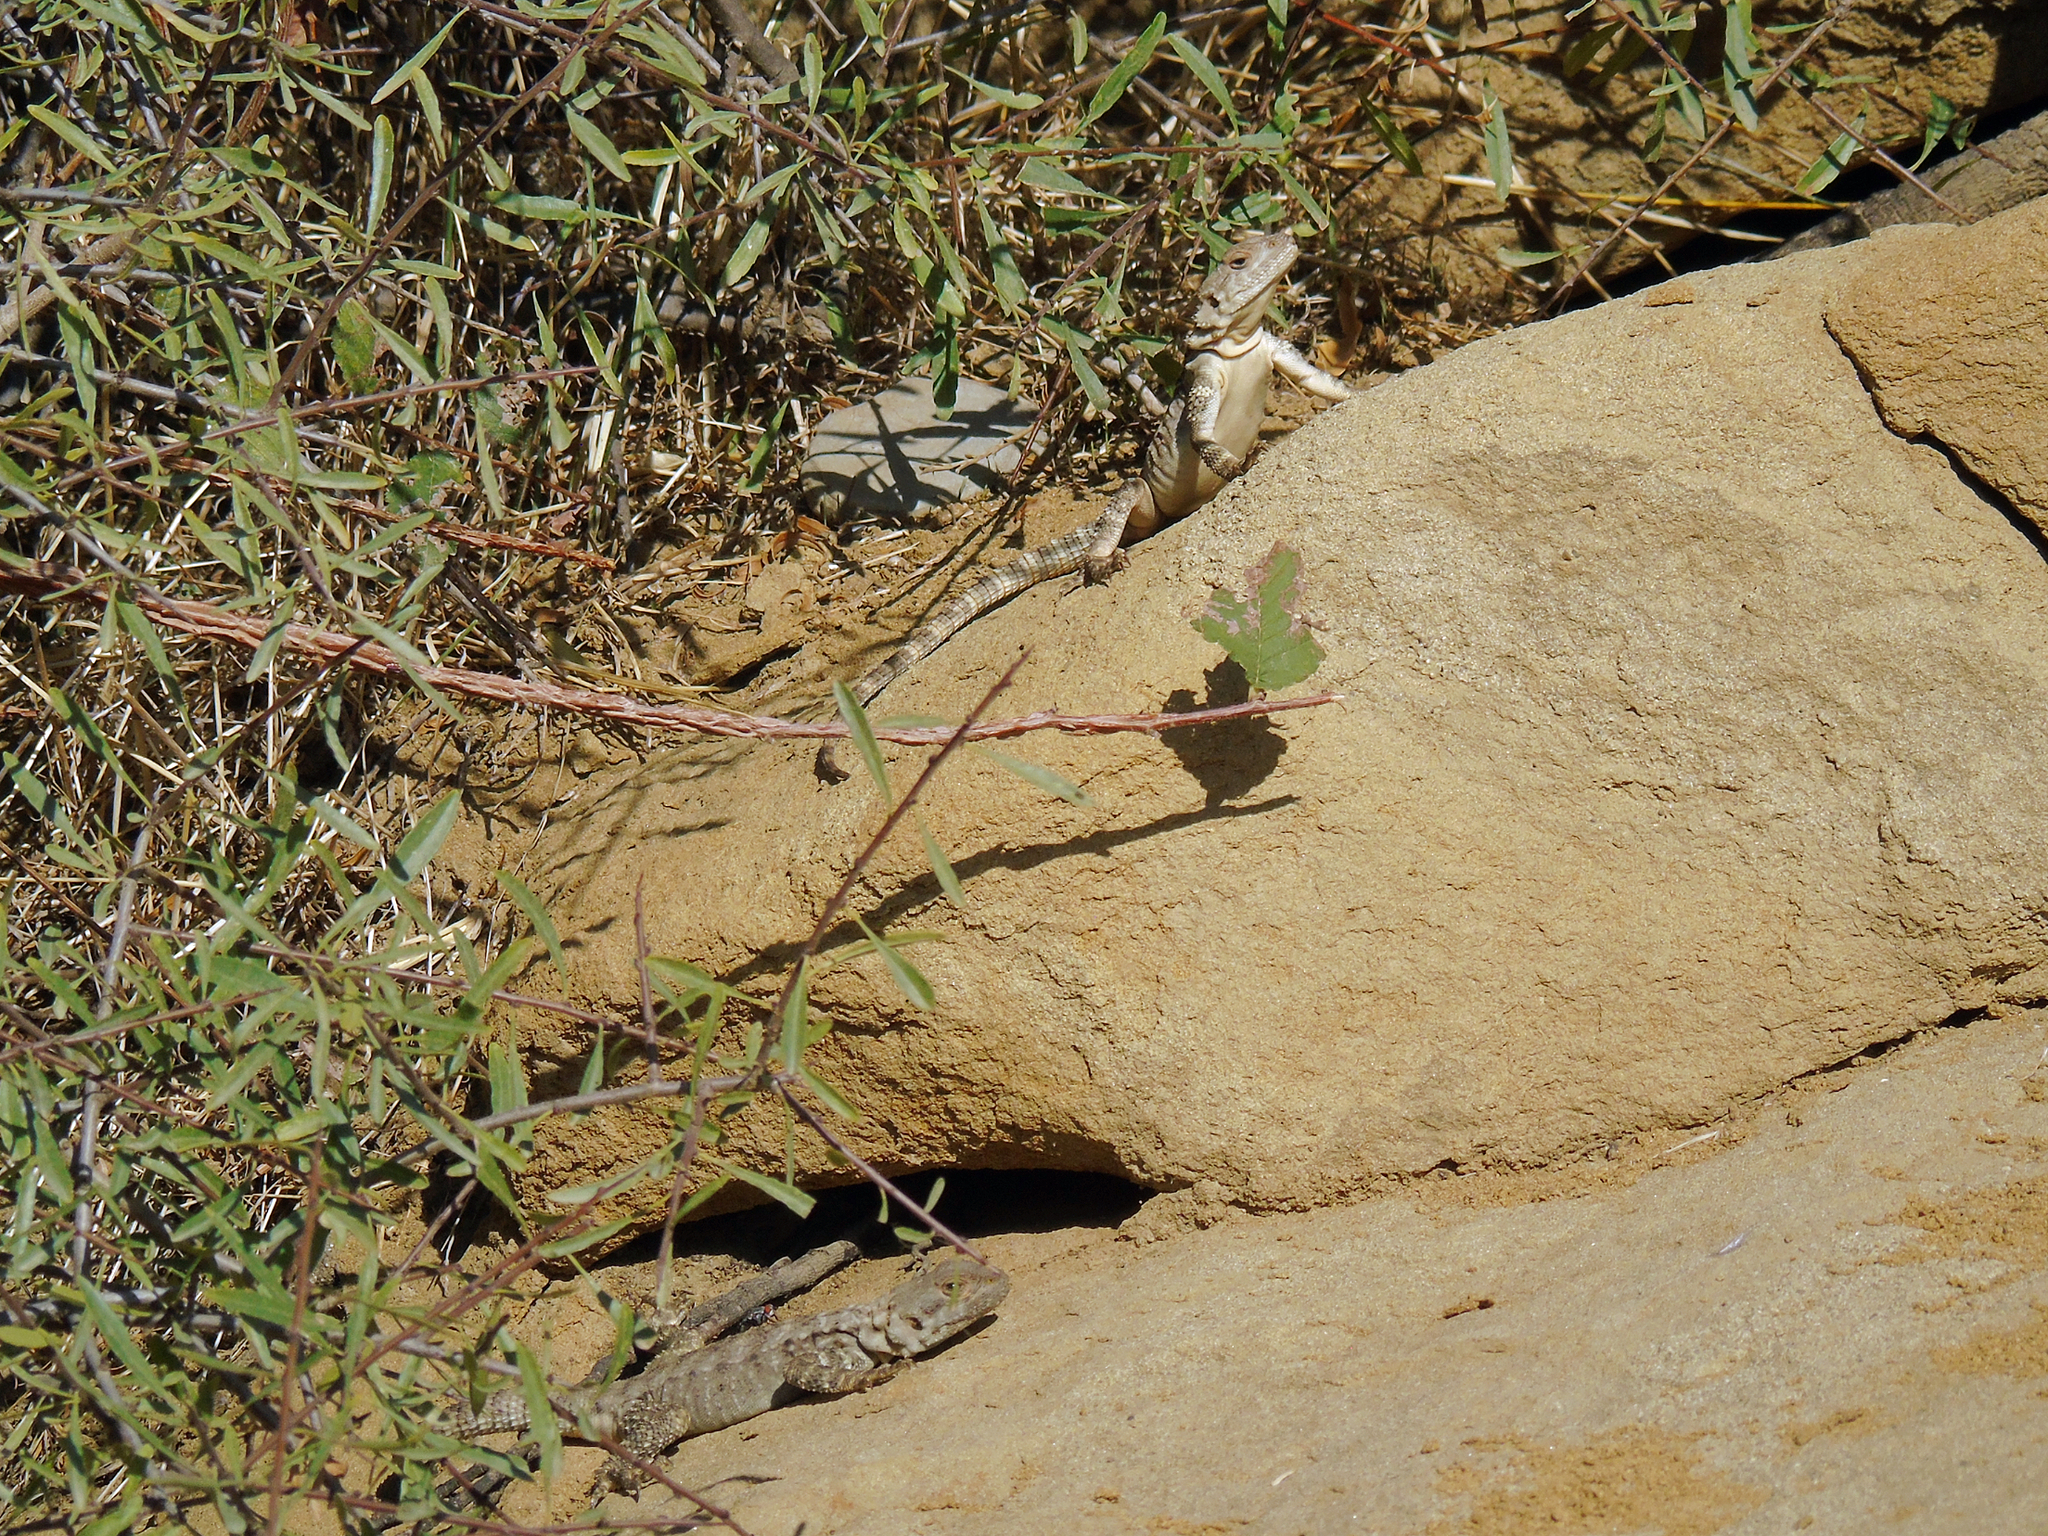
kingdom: Animalia
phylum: Chordata
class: Squamata
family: Agamidae
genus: Paralaudakia
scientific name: Paralaudakia caucasia
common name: Caucasian agama
